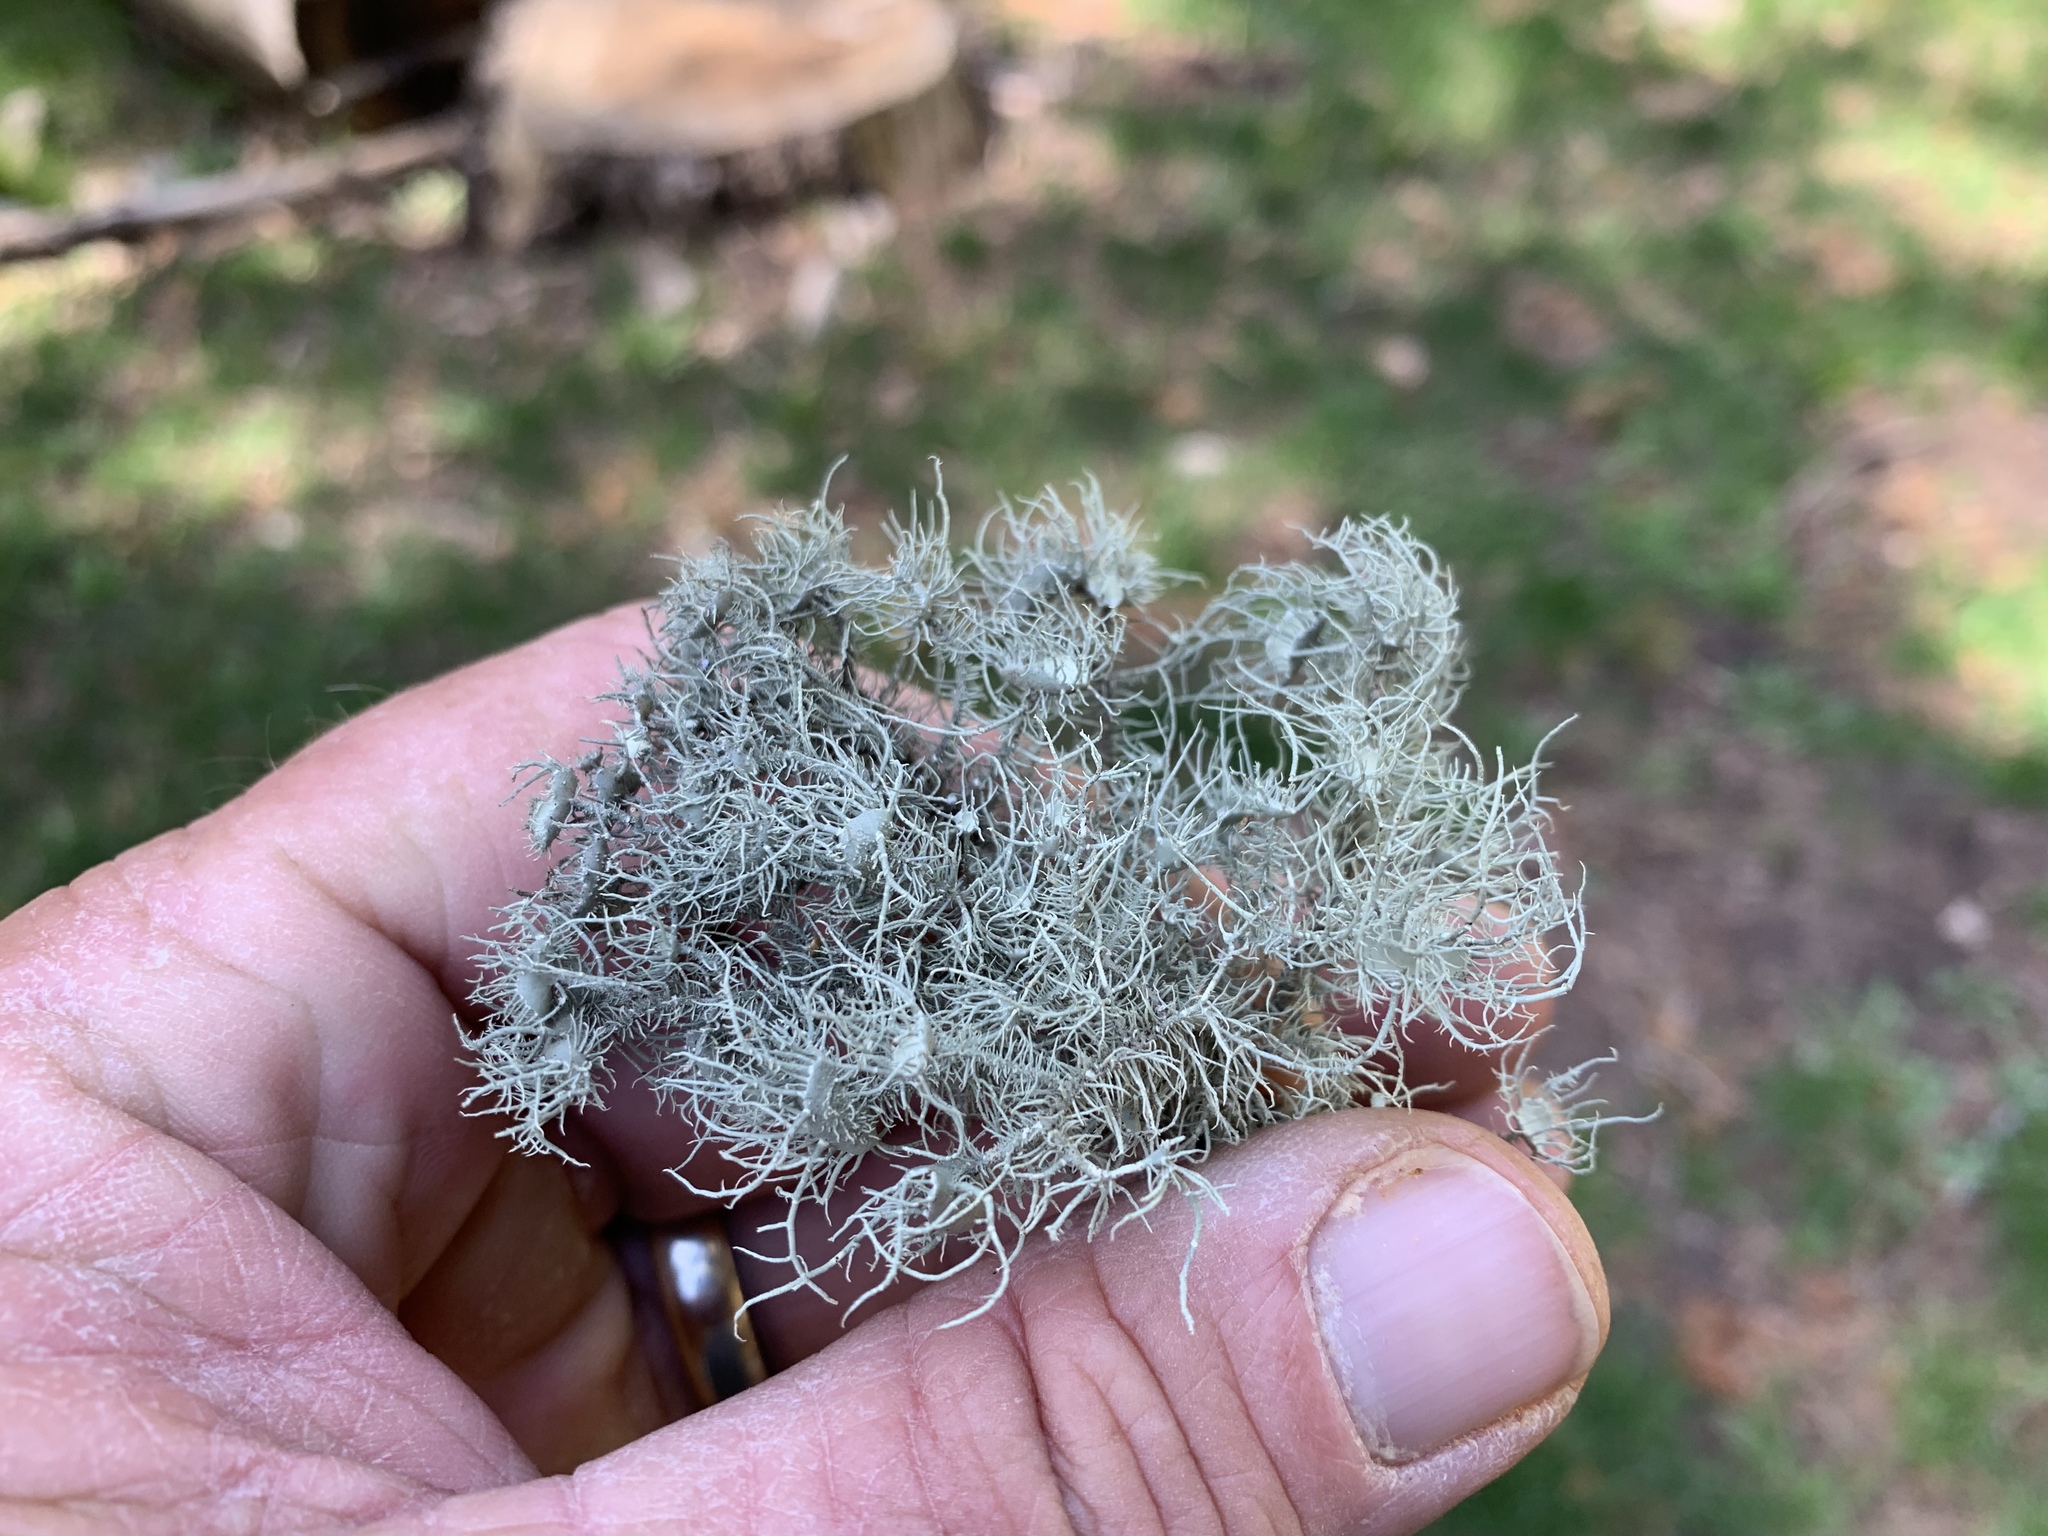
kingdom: Fungi
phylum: Ascomycota
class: Lecanoromycetes
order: Lecanorales
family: Parmeliaceae
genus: Usnea
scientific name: Usnea intermedia
